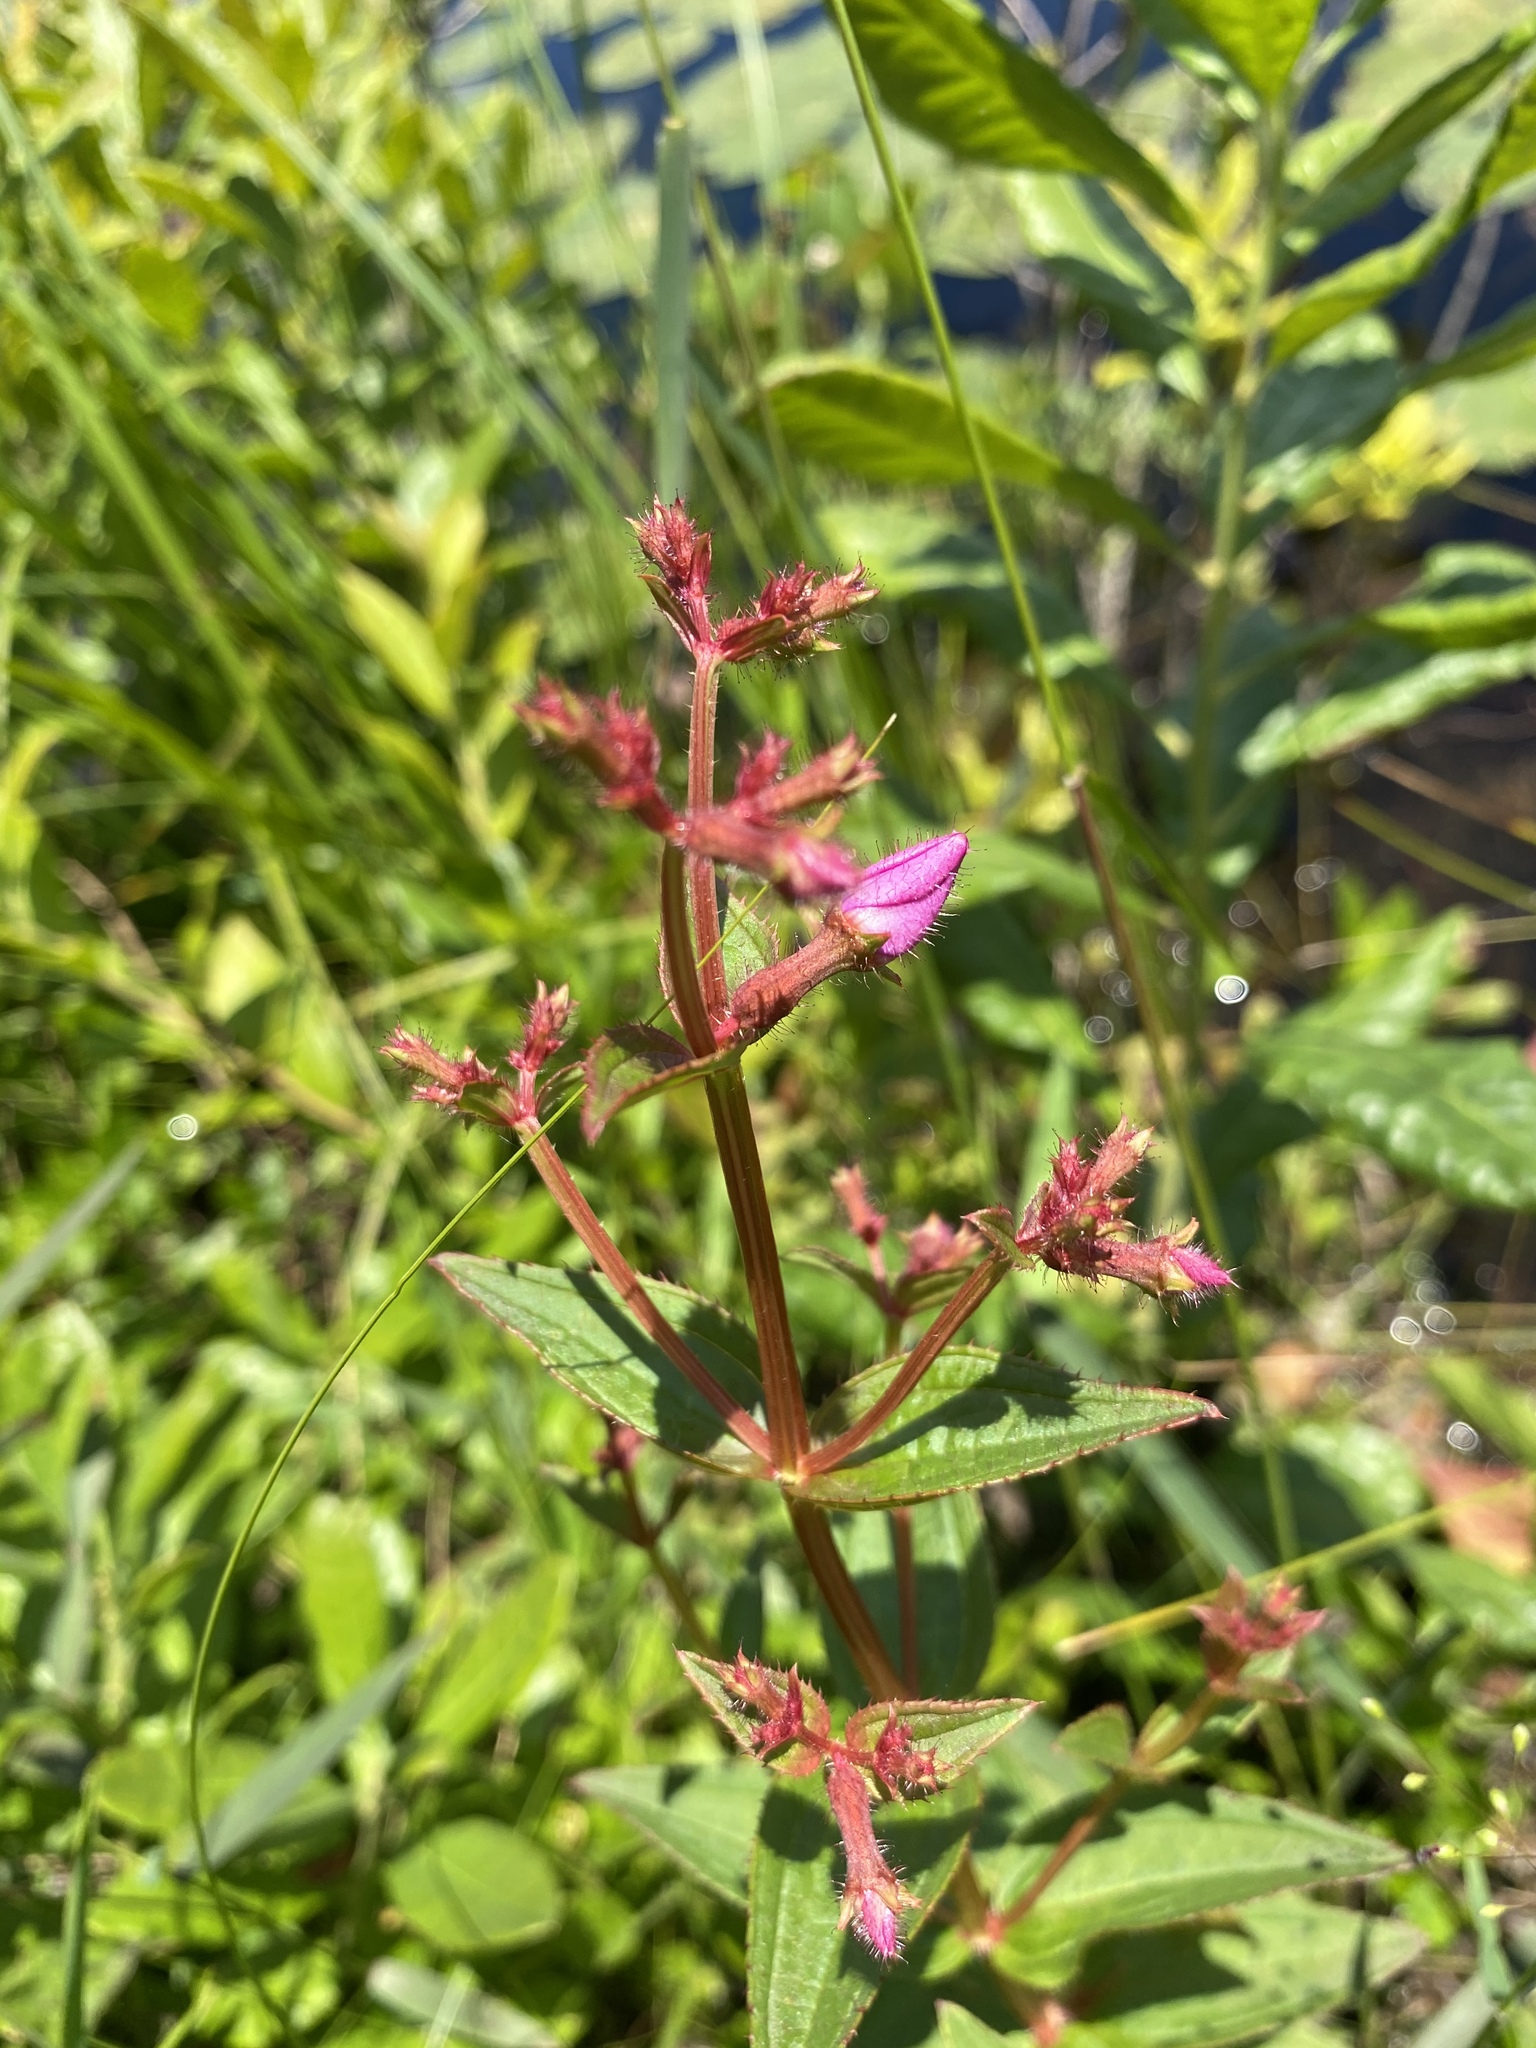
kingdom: Plantae
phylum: Tracheophyta
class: Magnoliopsida
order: Myrtales
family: Melastomataceae
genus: Rhexia
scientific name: Rhexia virginica
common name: Common meadow beauty
